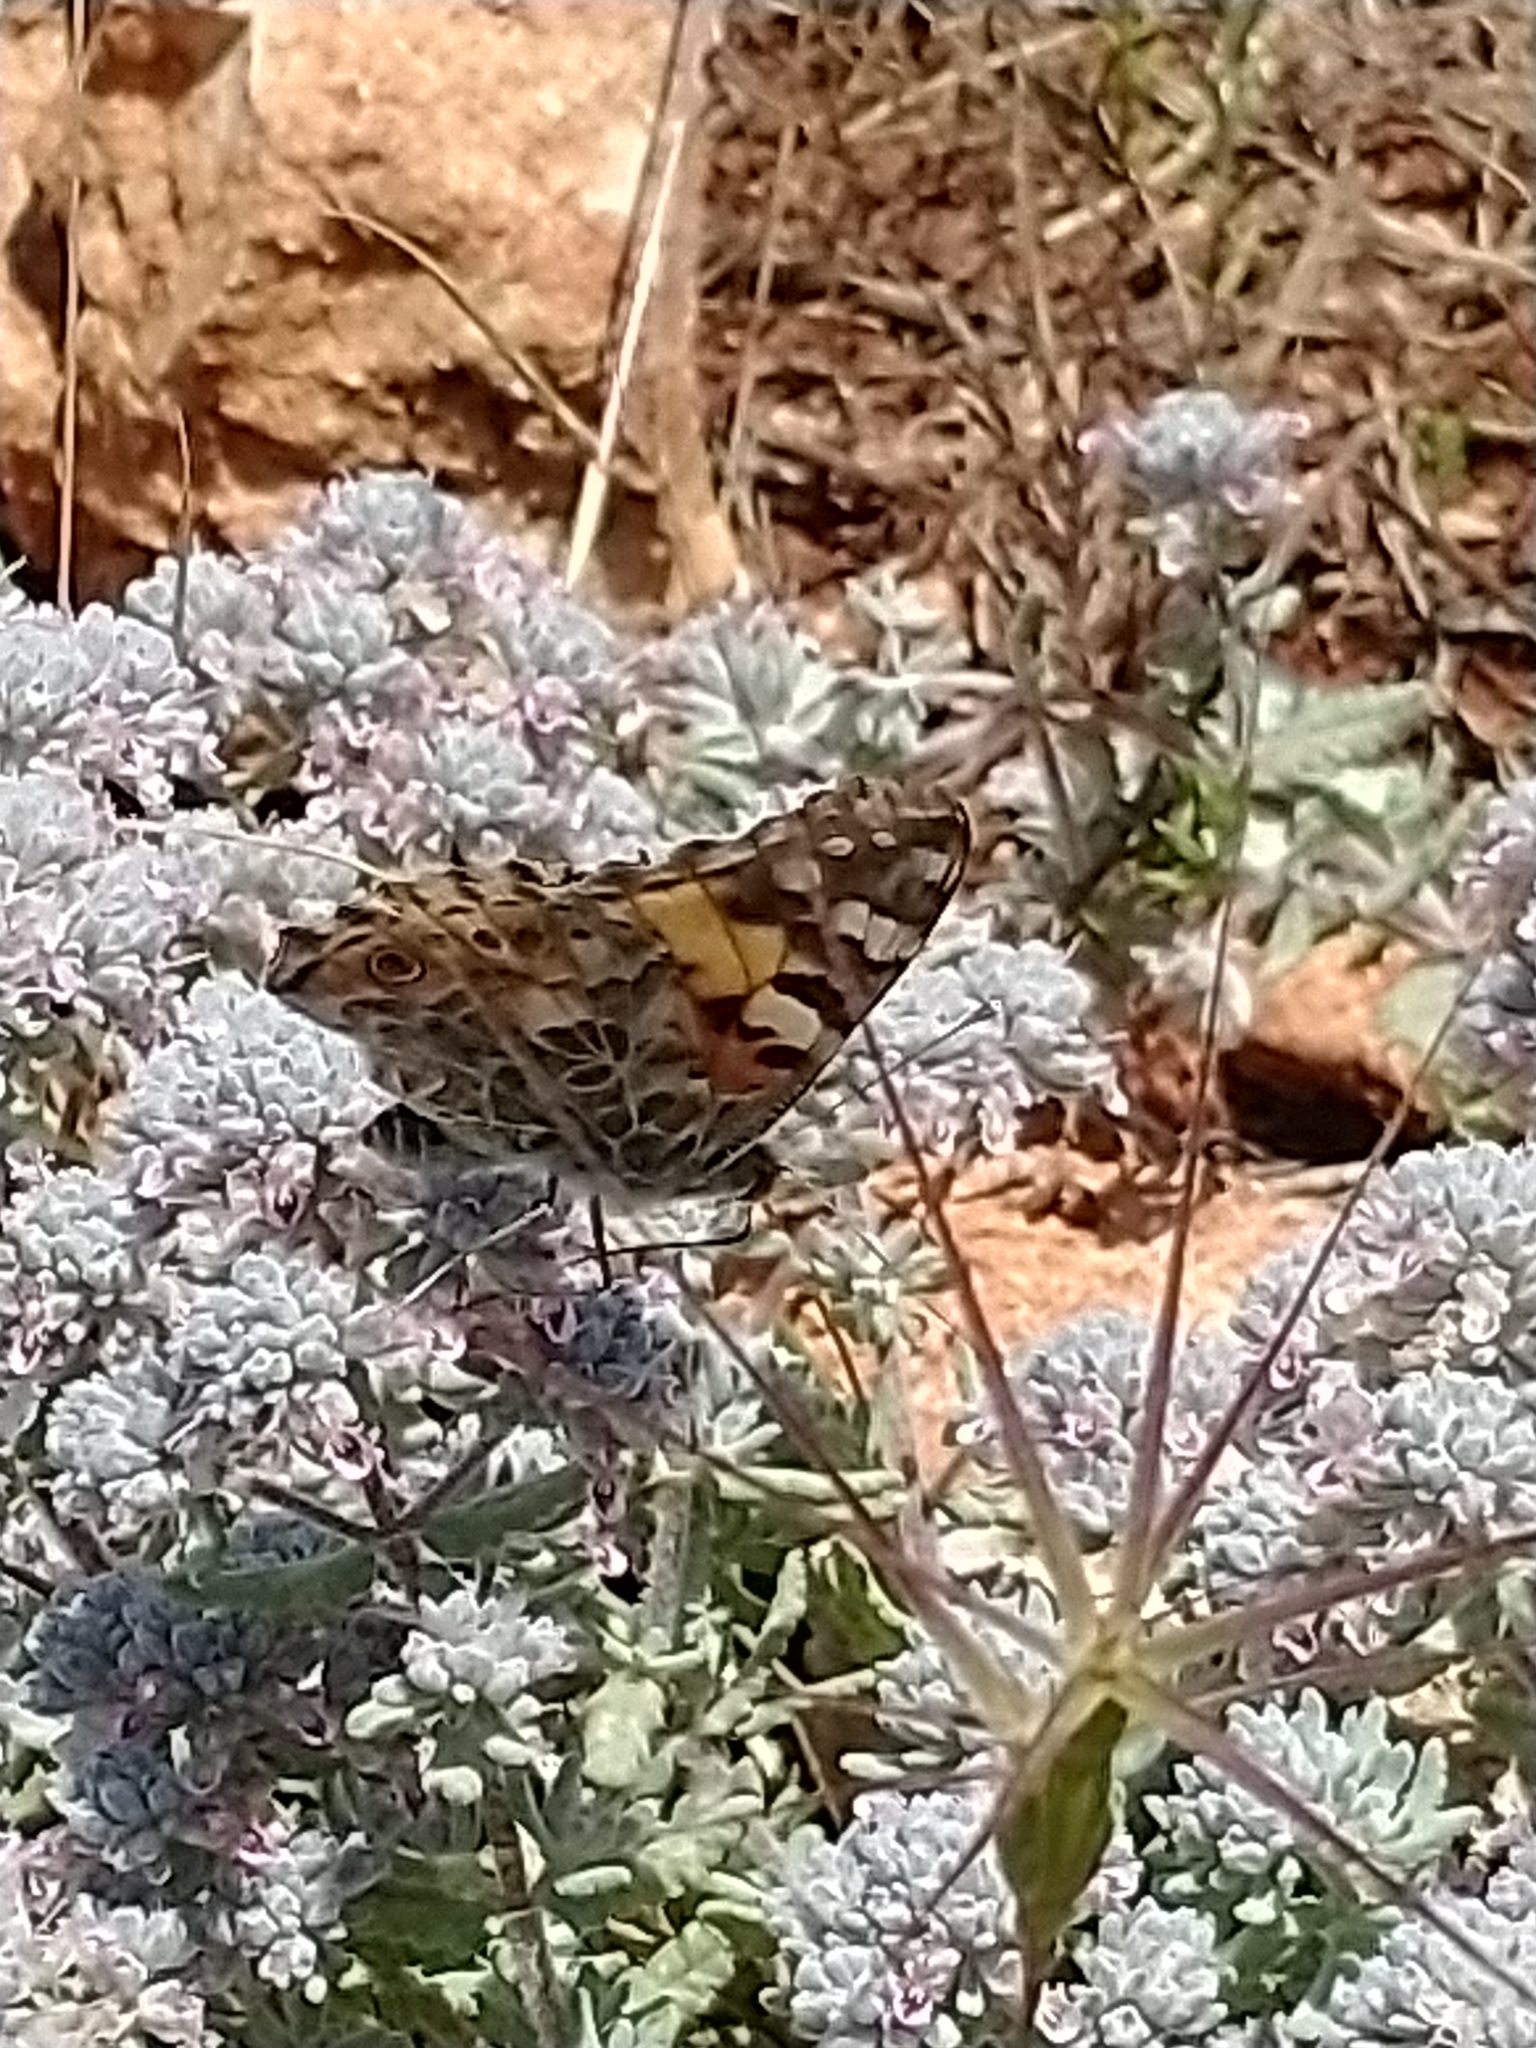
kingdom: Animalia
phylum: Arthropoda
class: Insecta
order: Lepidoptera
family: Nymphalidae
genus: Vanessa
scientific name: Vanessa cardui
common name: Painted lady
